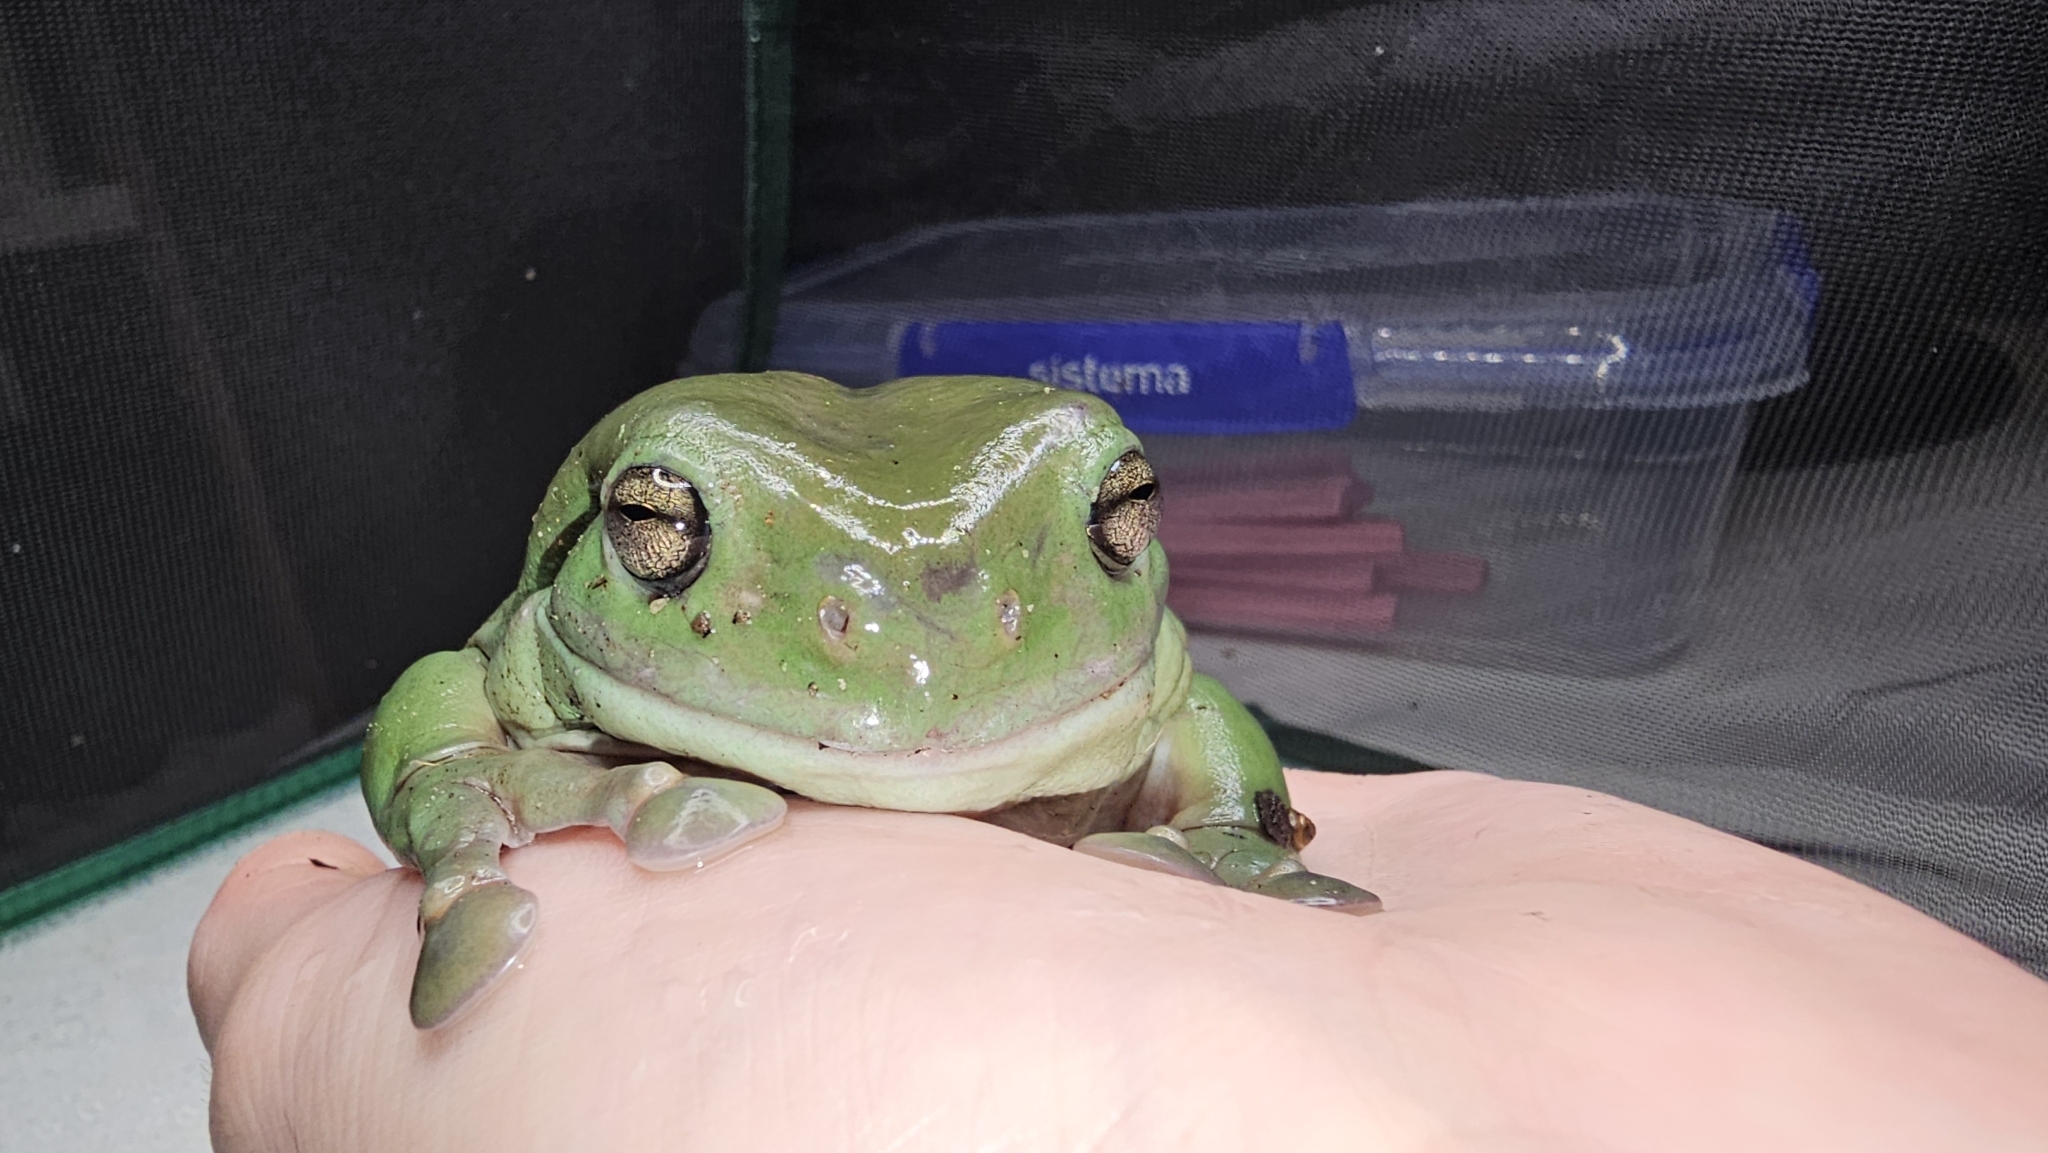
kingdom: Animalia
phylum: Chordata
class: Amphibia
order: Anura
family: Pelodryadidae
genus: Ranoidea
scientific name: Ranoidea caerulea
